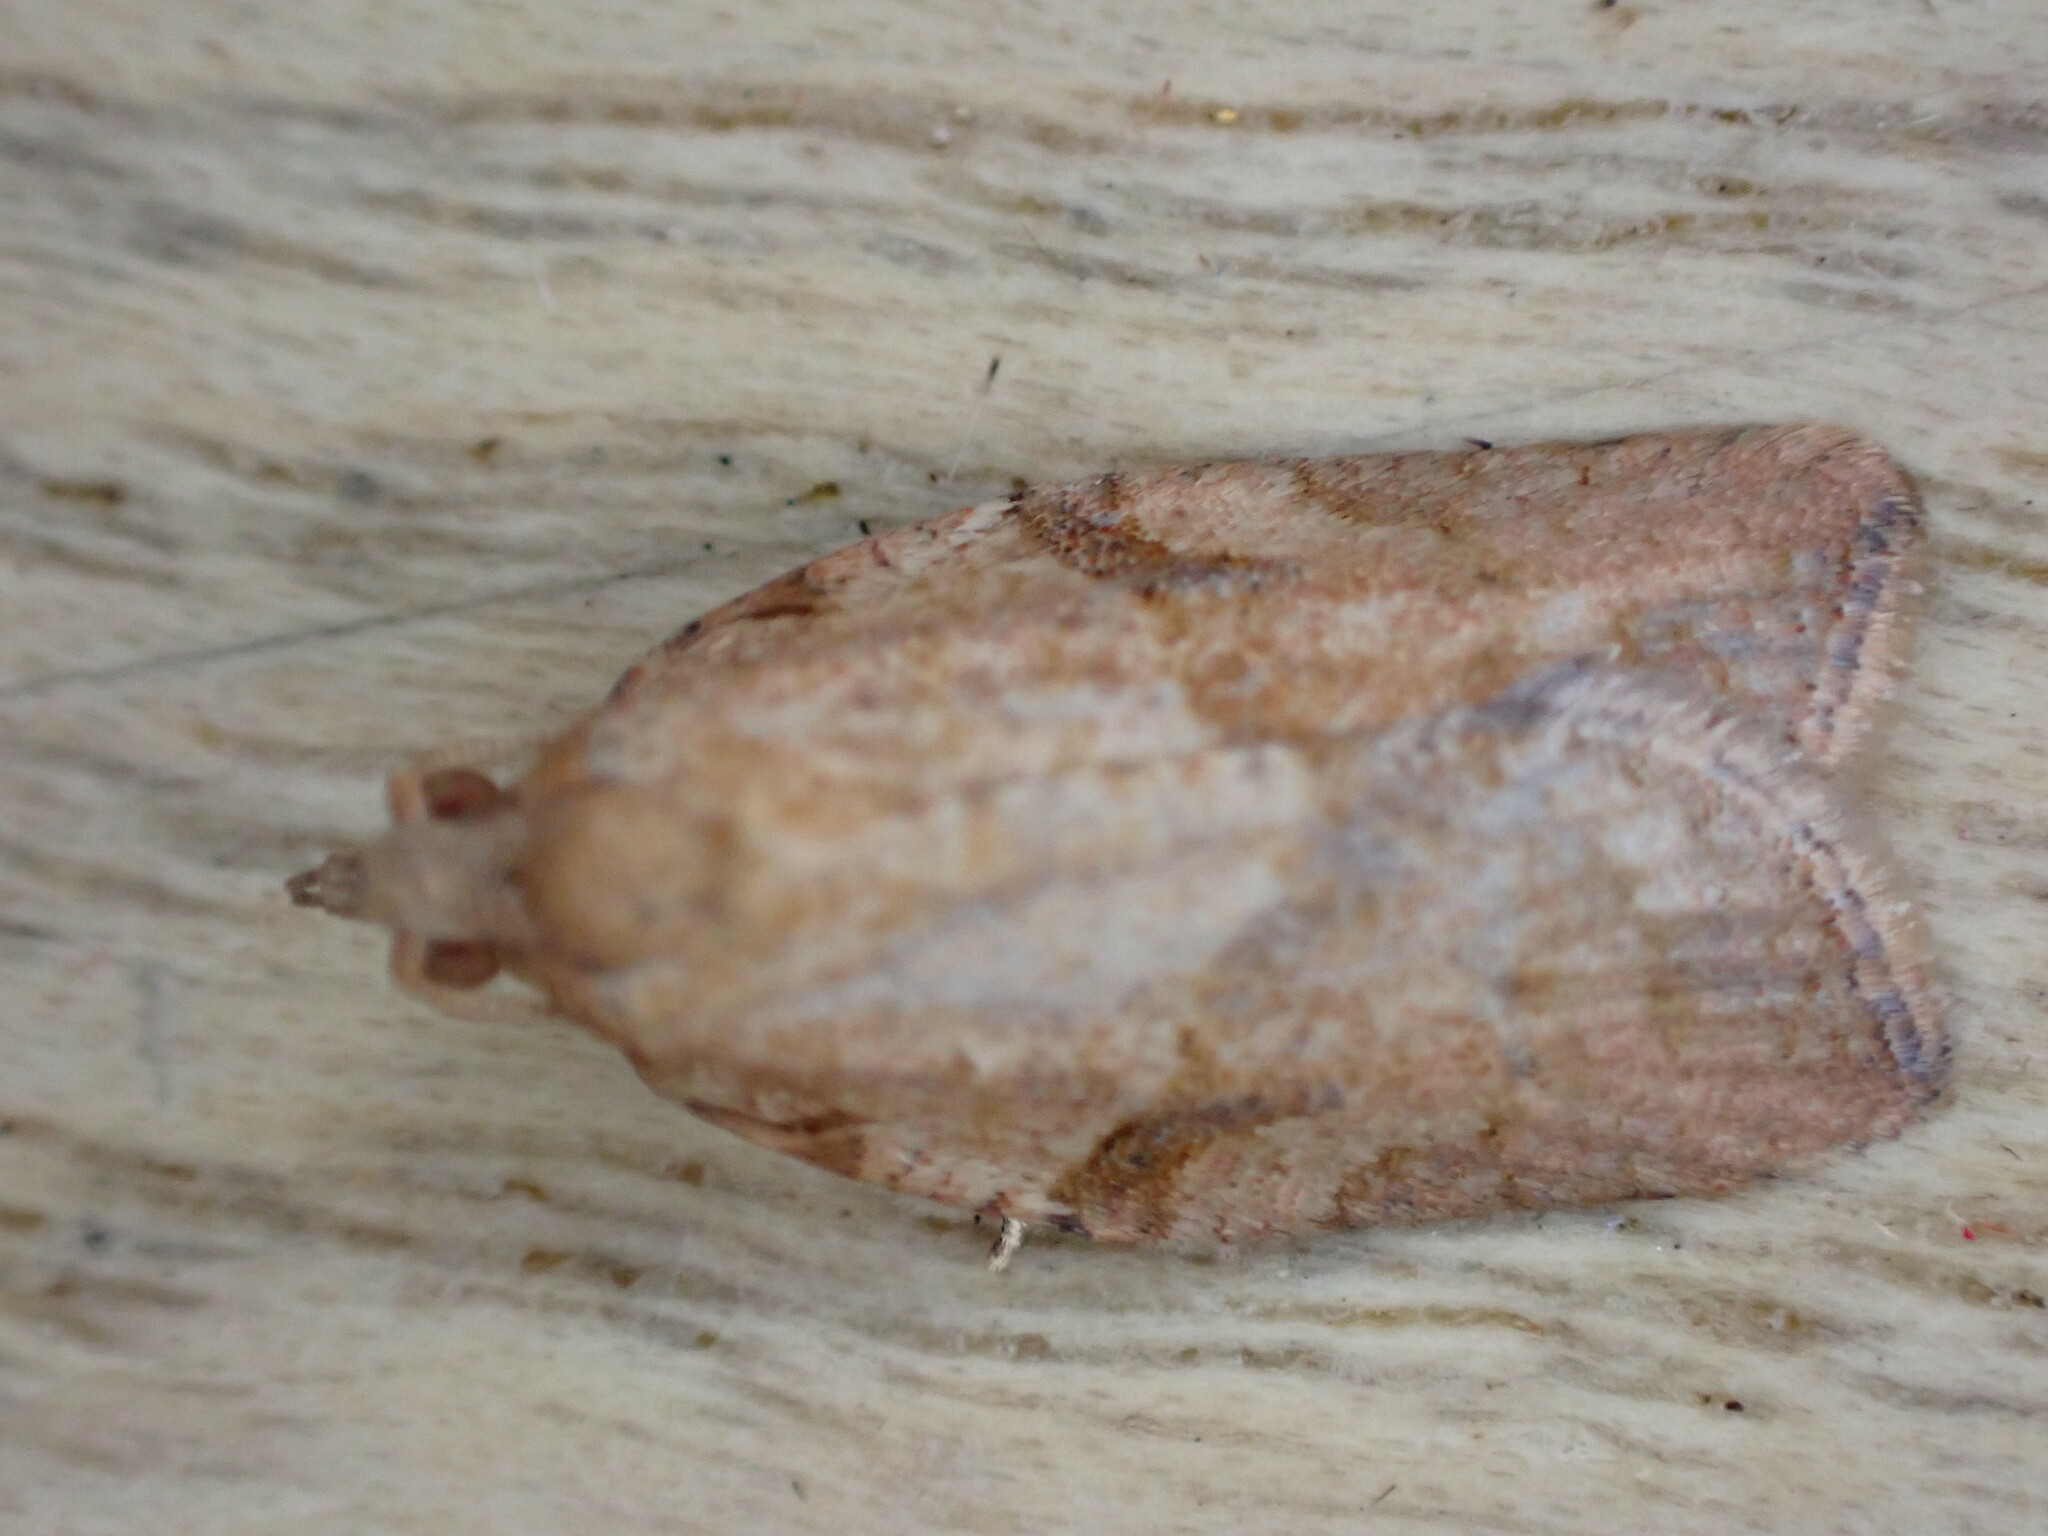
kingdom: Animalia
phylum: Arthropoda
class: Insecta
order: Lepidoptera
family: Tortricidae
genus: Epiphyas
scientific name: Epiphyas postvittana
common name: Light brown apple moth
